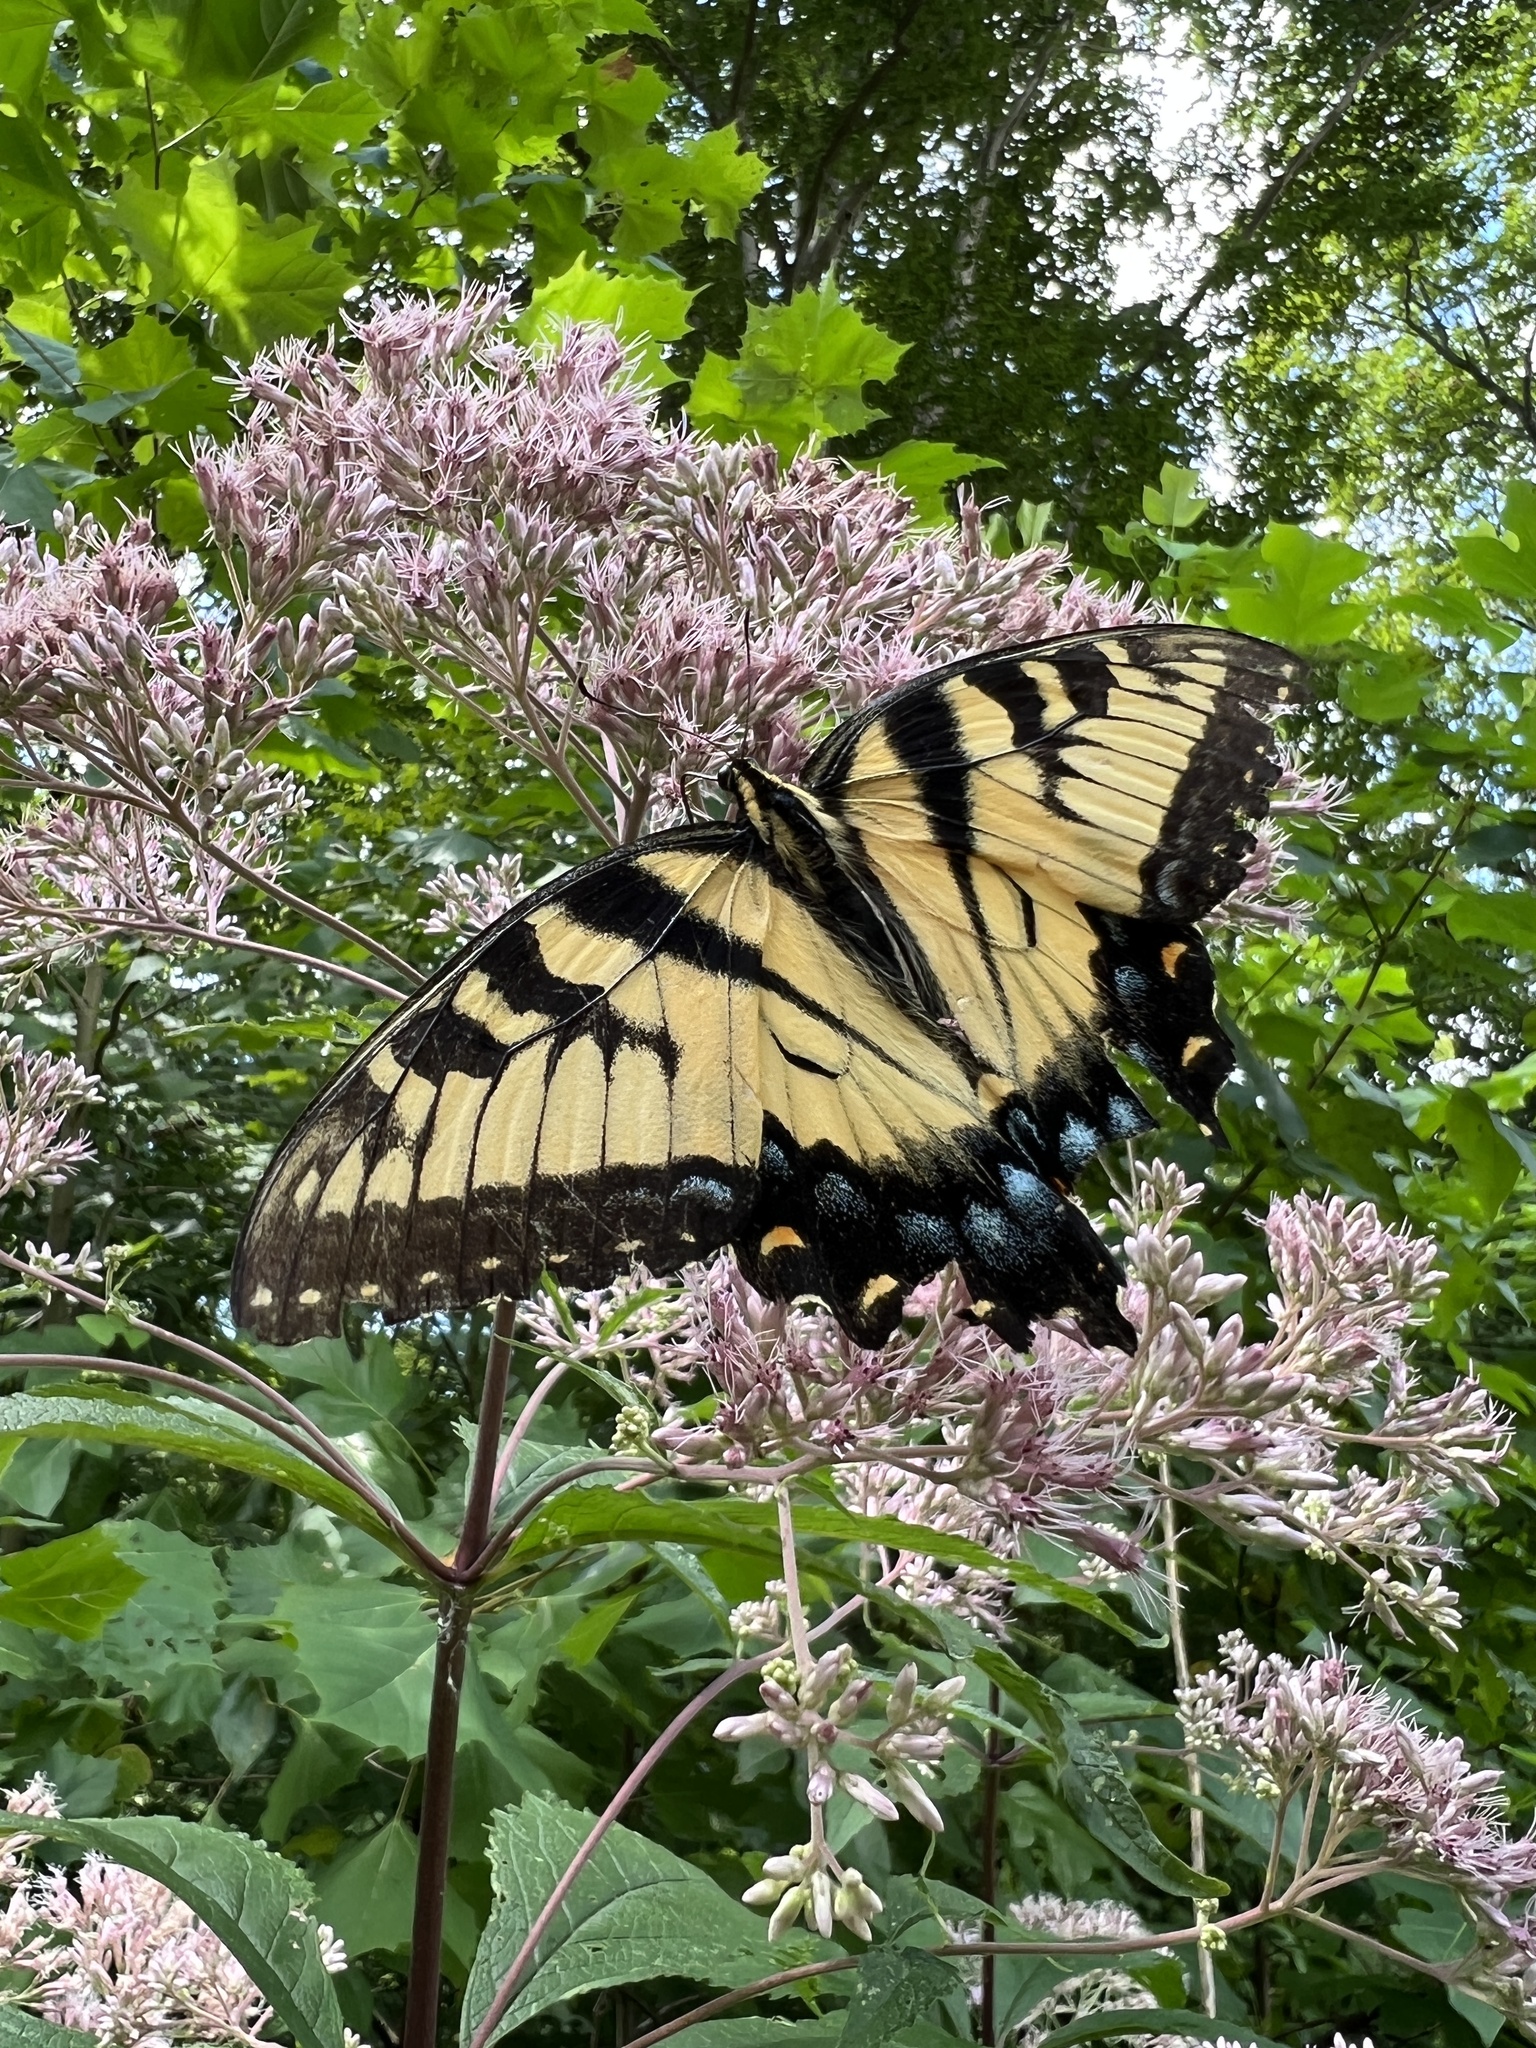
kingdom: Animalia
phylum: Arthropoda
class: Insecta
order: Lepidoptera
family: Papilionidae
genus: Papilio
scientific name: Papilio glaucus
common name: Tiger swallowtail
